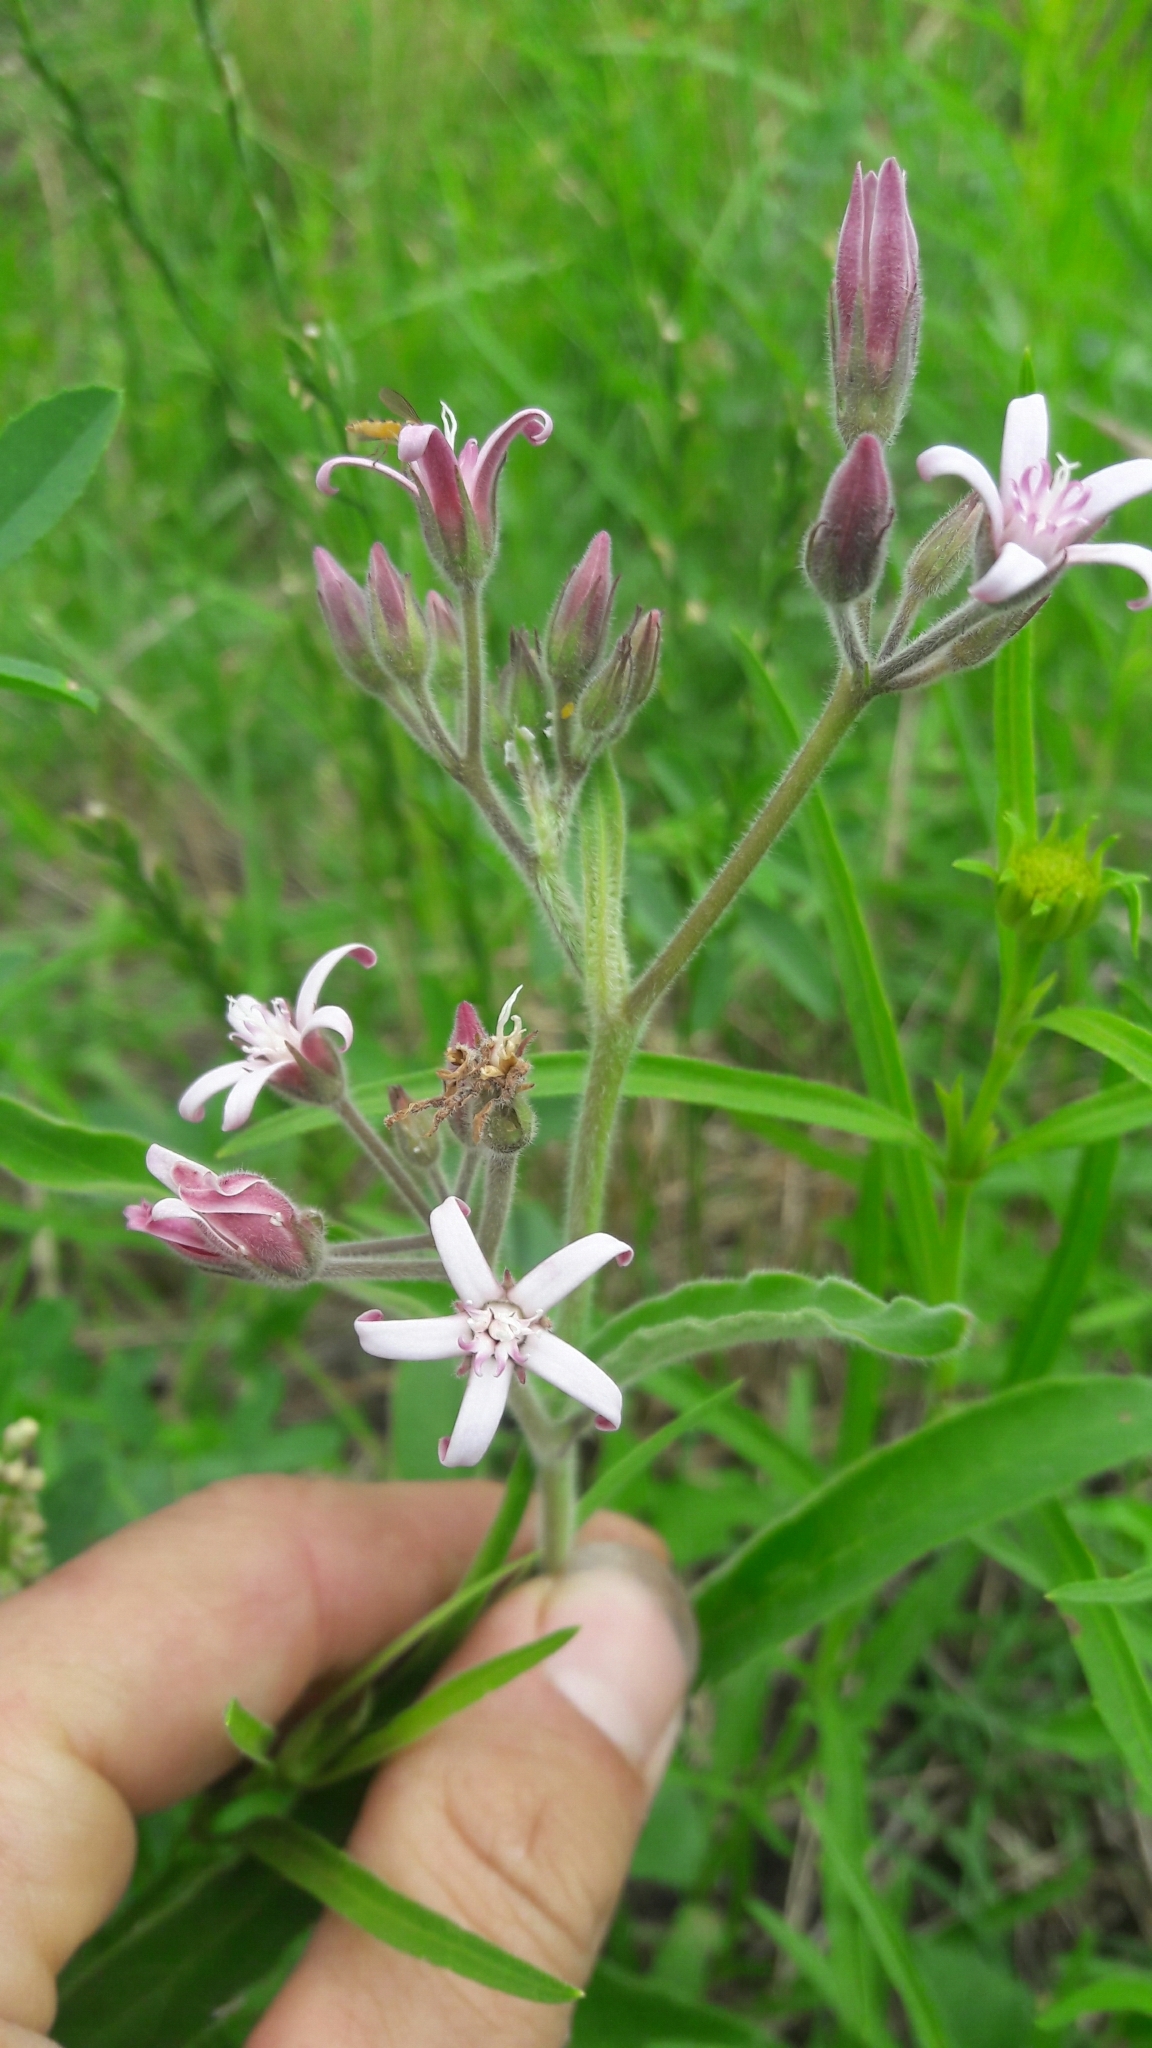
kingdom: Plantae
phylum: Tracheophyta
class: Magnoliopsida
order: Gentianales
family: Apocynaceae
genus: Oxypetalum
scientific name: Oxypetalum solanoides
